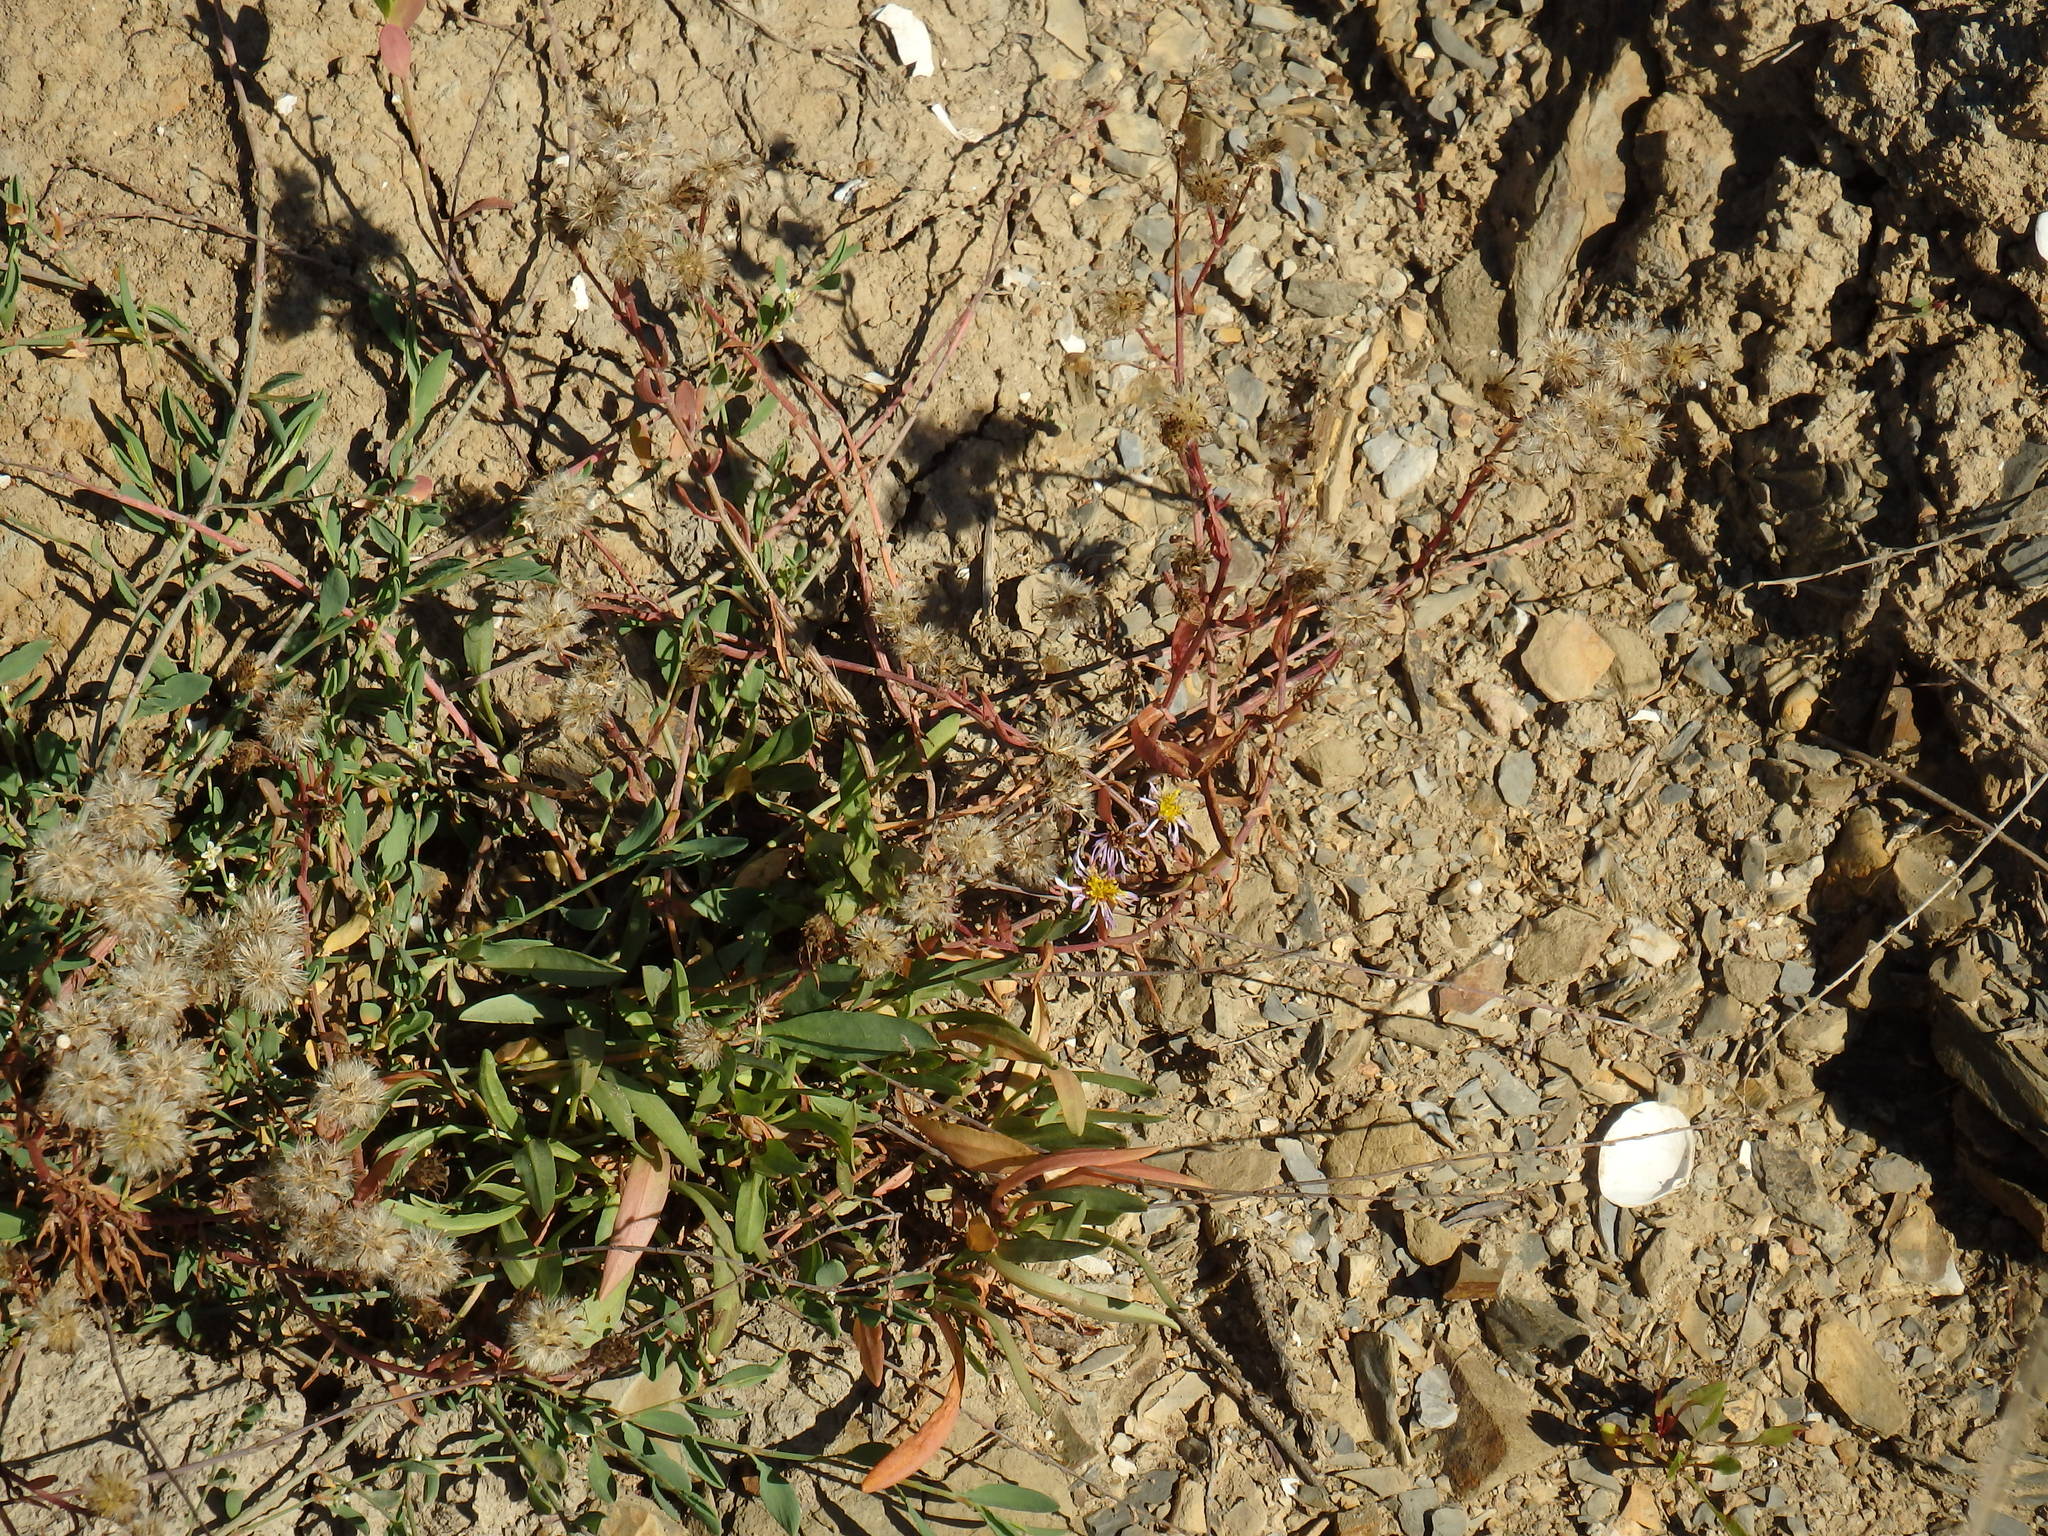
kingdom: Plantae
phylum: Tracheophyta
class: Magnoliopsida
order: Asterales
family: Asteraceae
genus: Tripolium
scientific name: Tripolium pannonicum
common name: Sea aster
